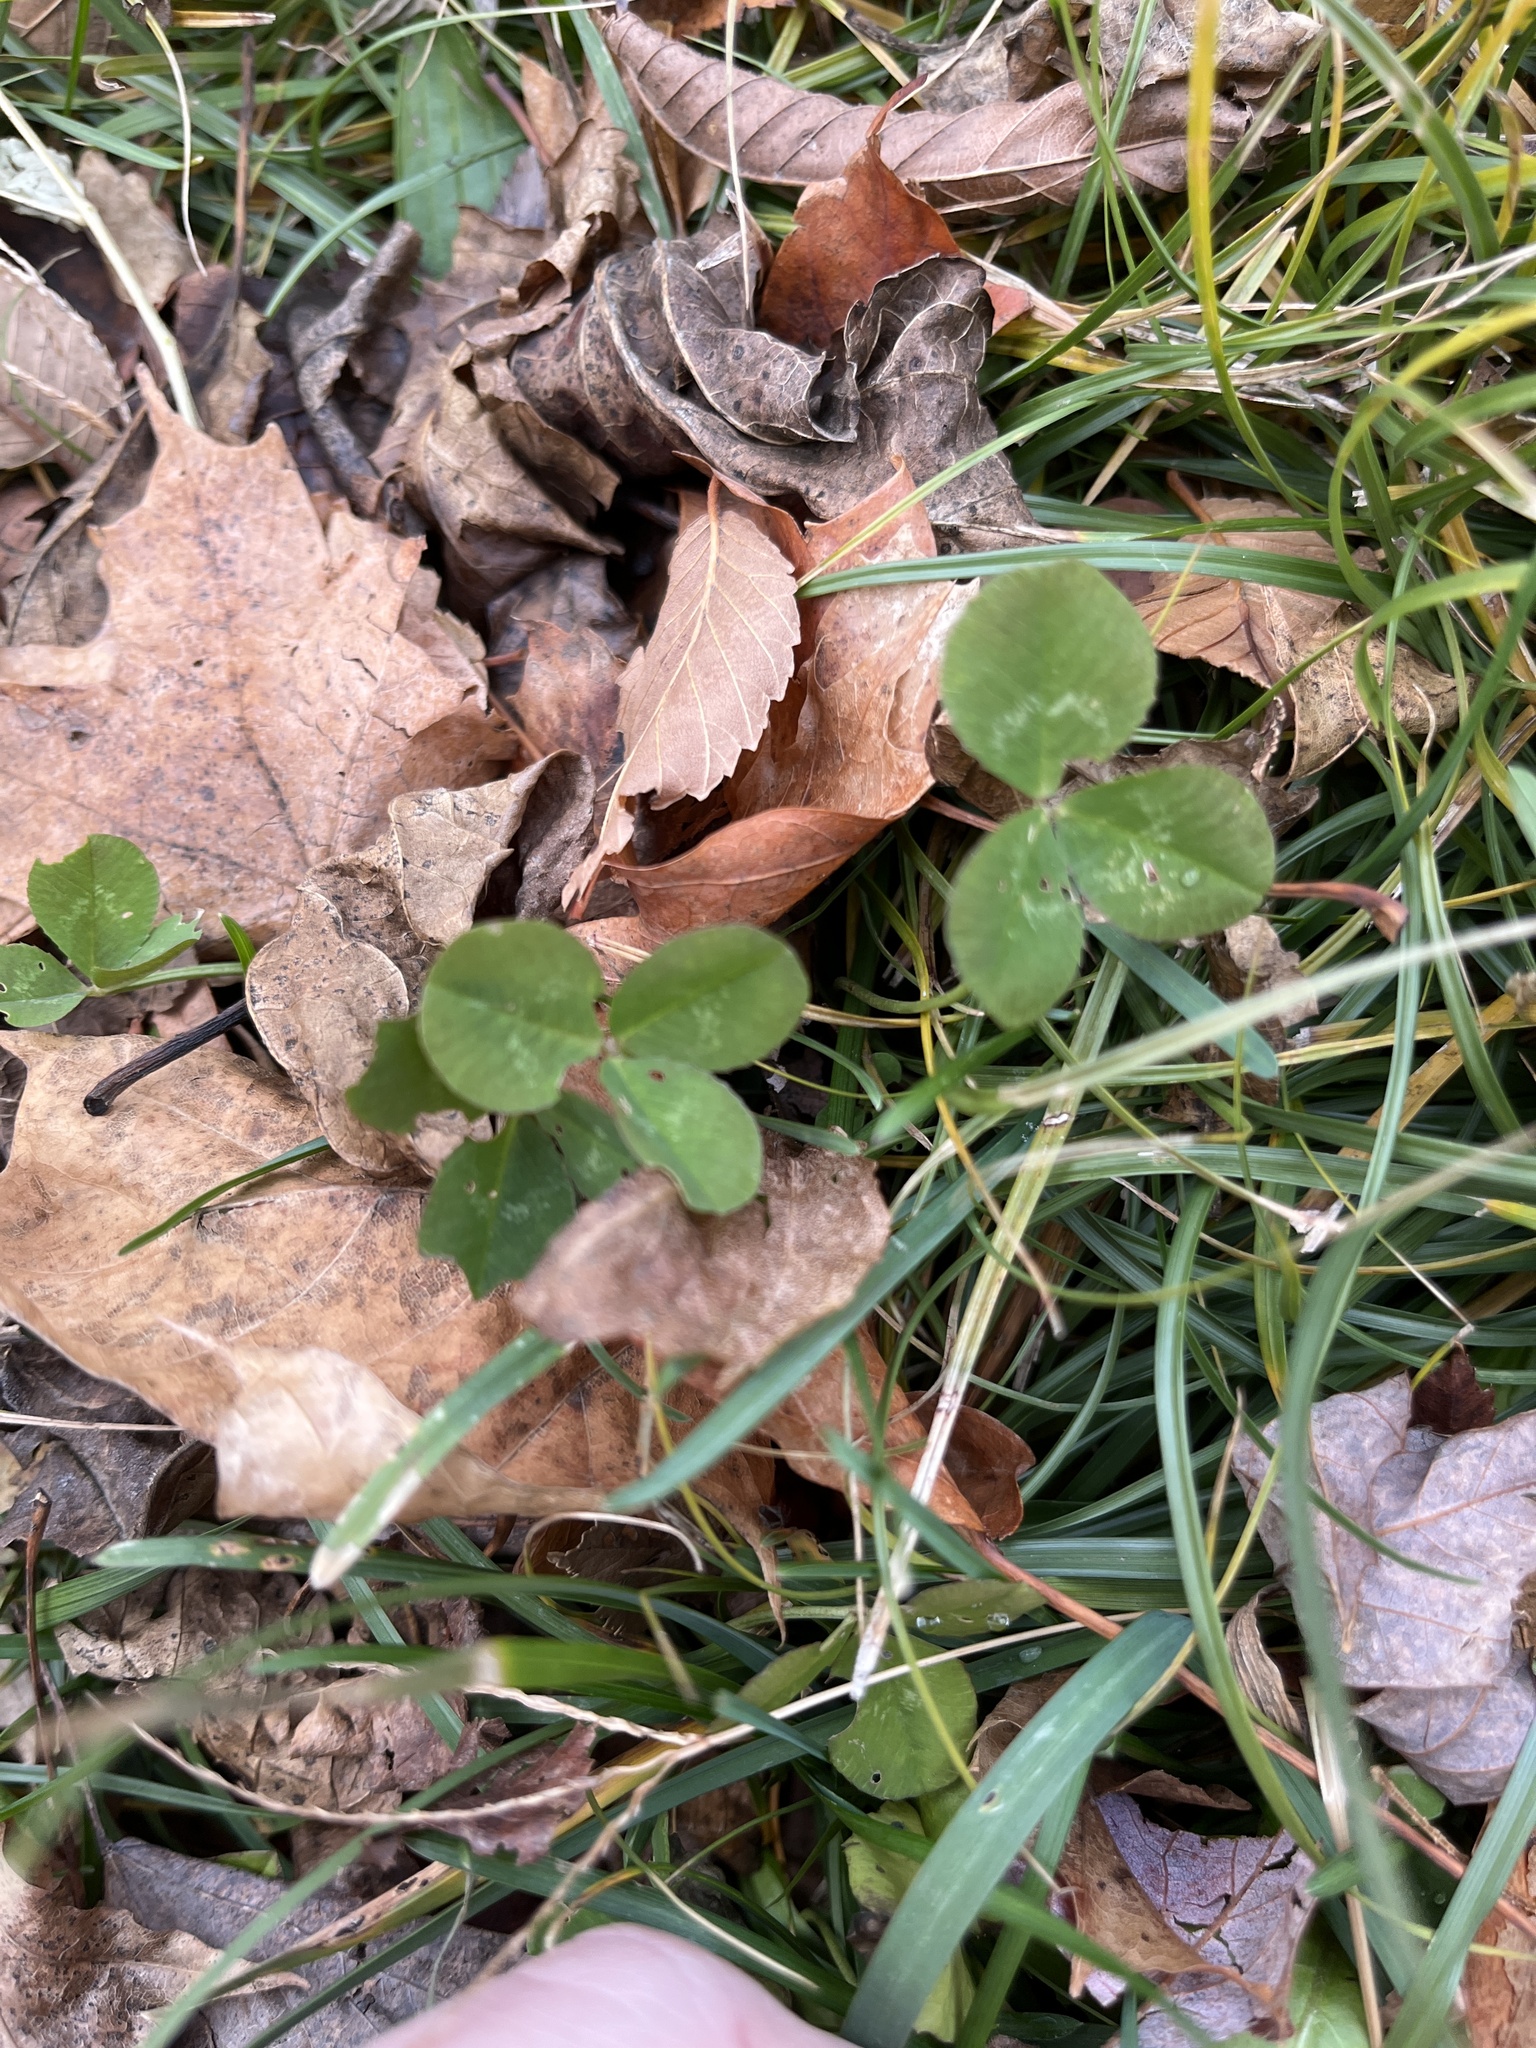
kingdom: Plantae
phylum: Tracheophyta
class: Magnoliopsida
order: Fabales
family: Fabaceae
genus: Trifolium
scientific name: Trifolium repens
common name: White clover
